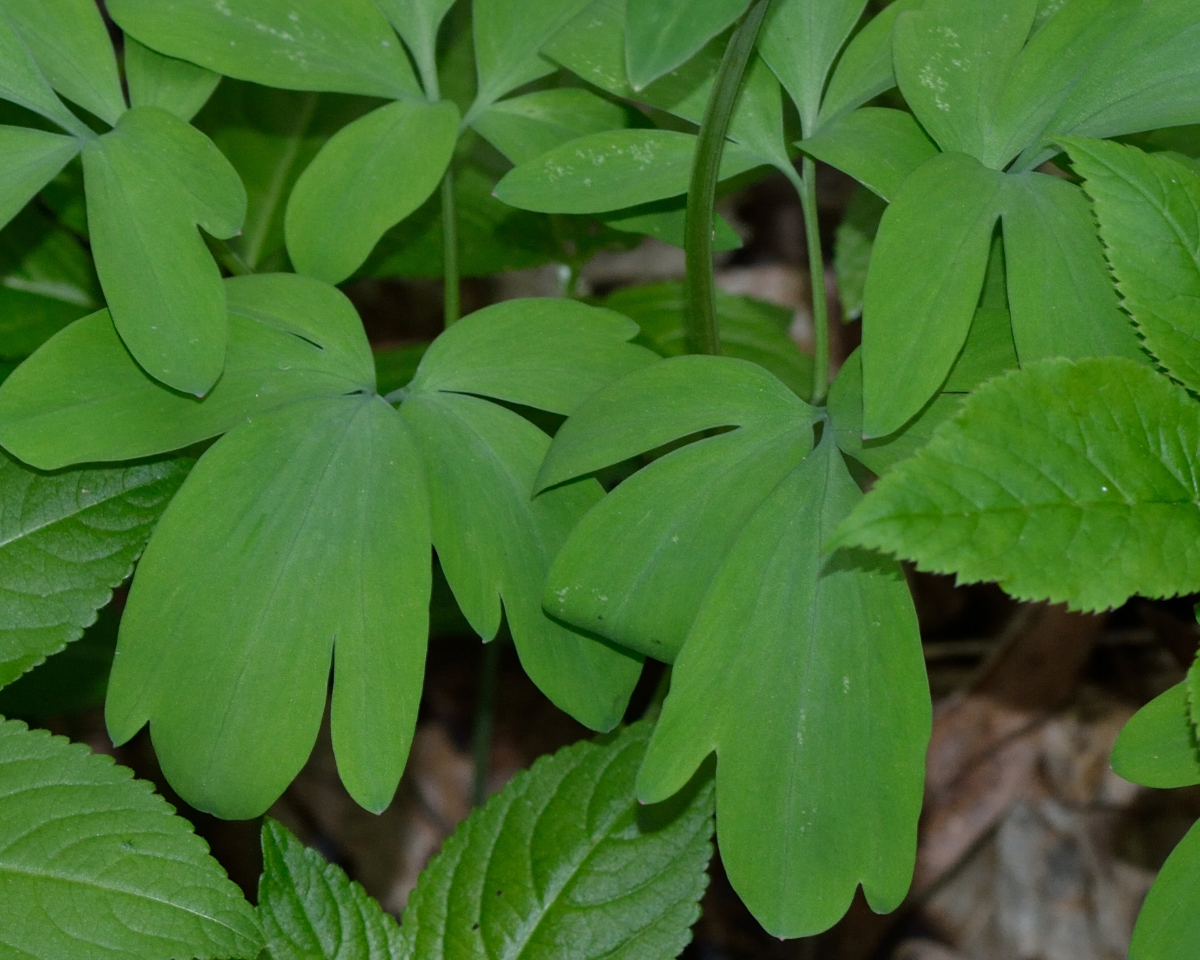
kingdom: Plantae
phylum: Tracheophyta
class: Magnoliopsida
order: Ranunculales
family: Papaveraceae
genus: Corydalis
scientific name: Corydalis cava
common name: Hollowroot
